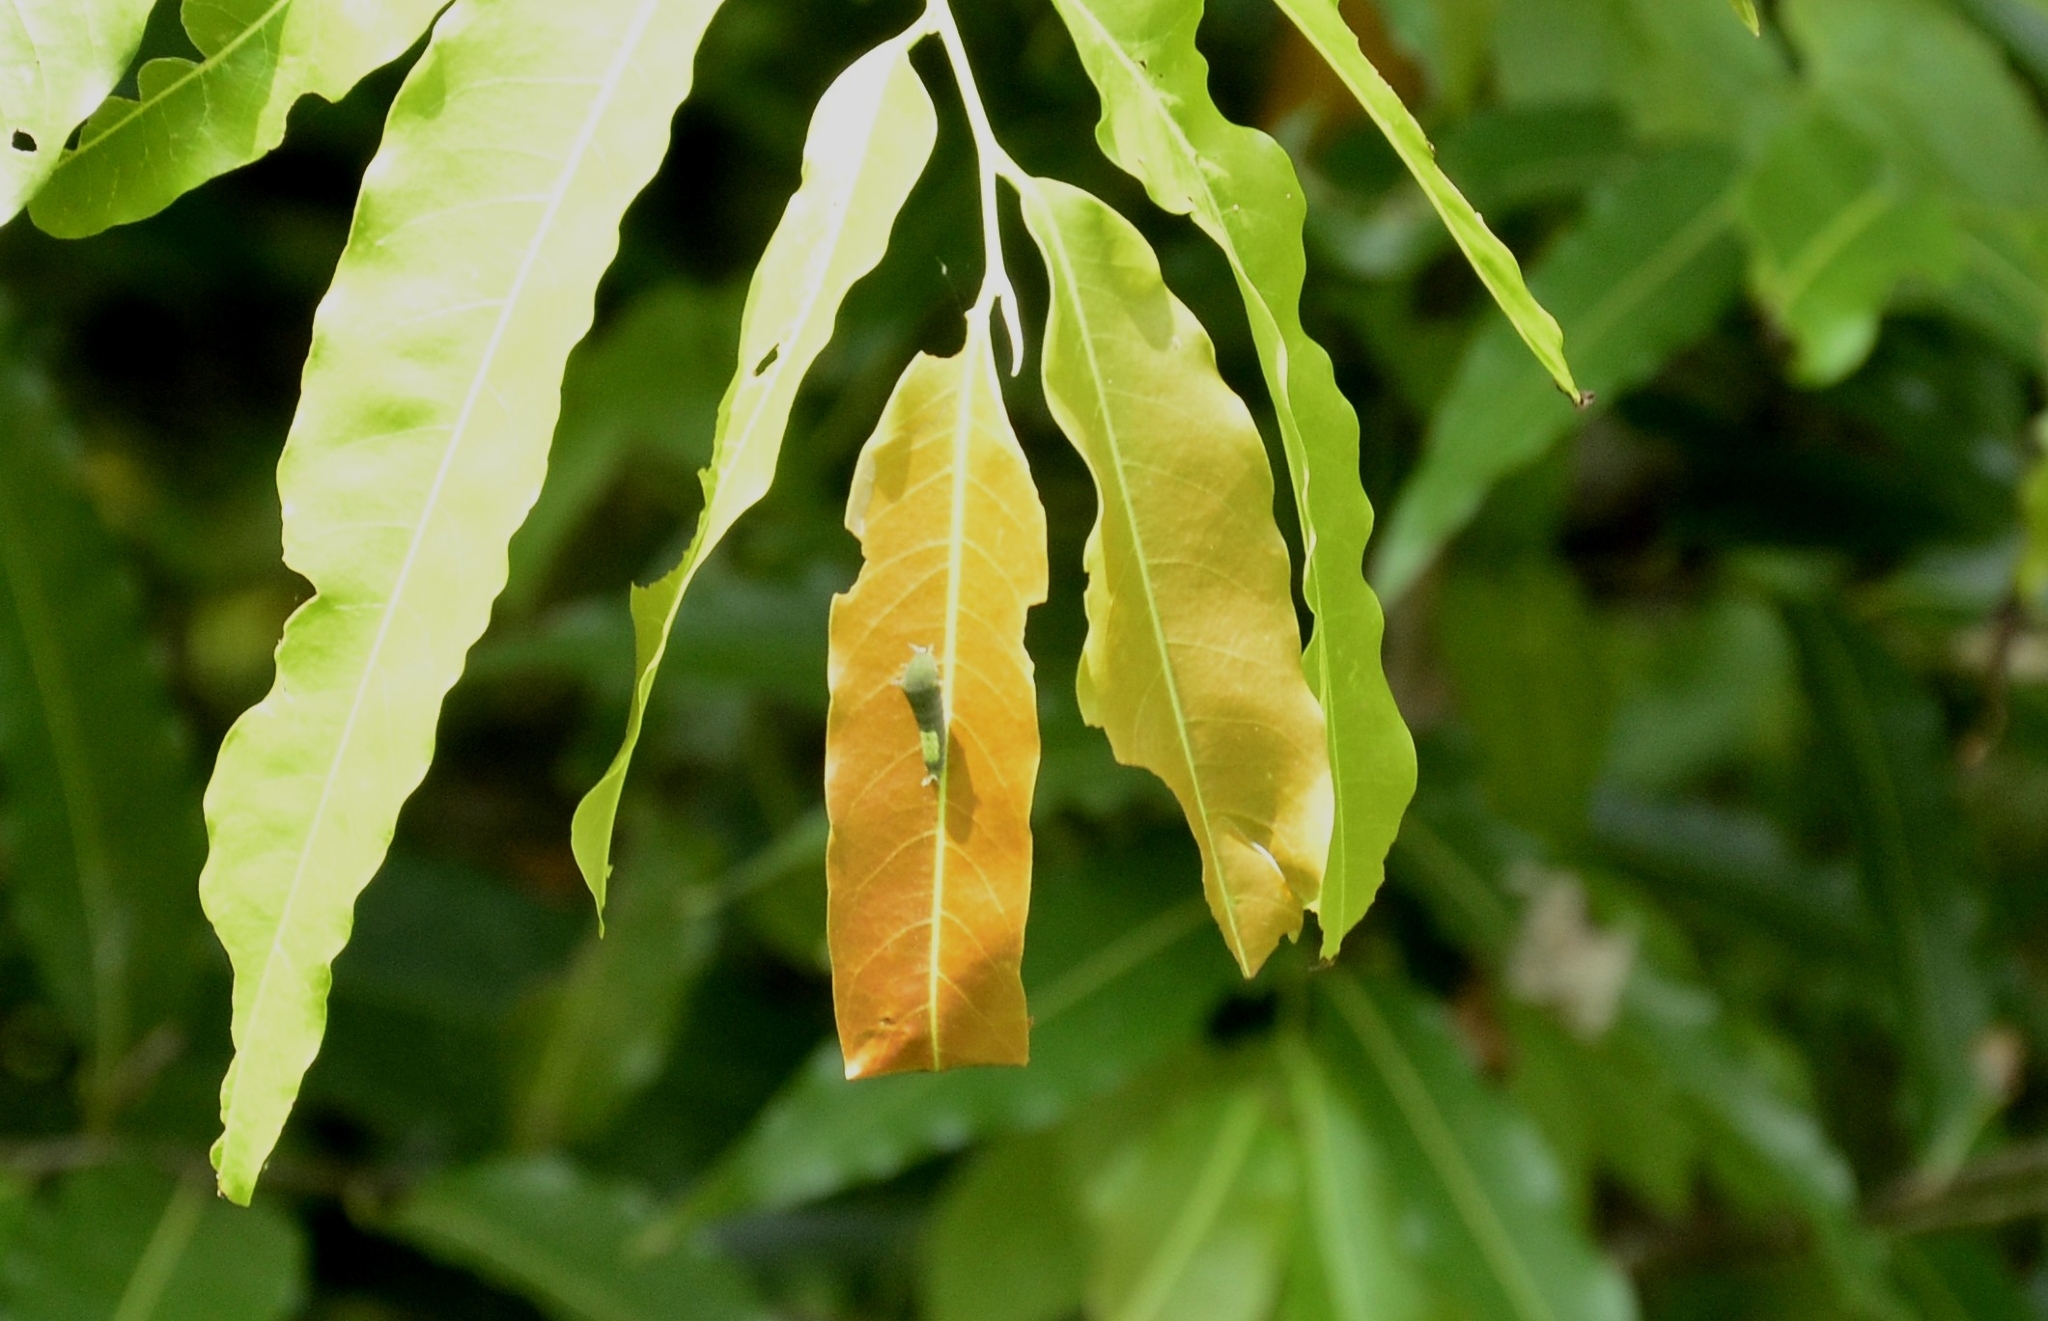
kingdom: Animalia
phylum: Arthropoda
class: Insecta
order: Lepidoptera
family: Papilionidae
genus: Graphium
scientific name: Graphium agamemnon
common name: Tailed jay
